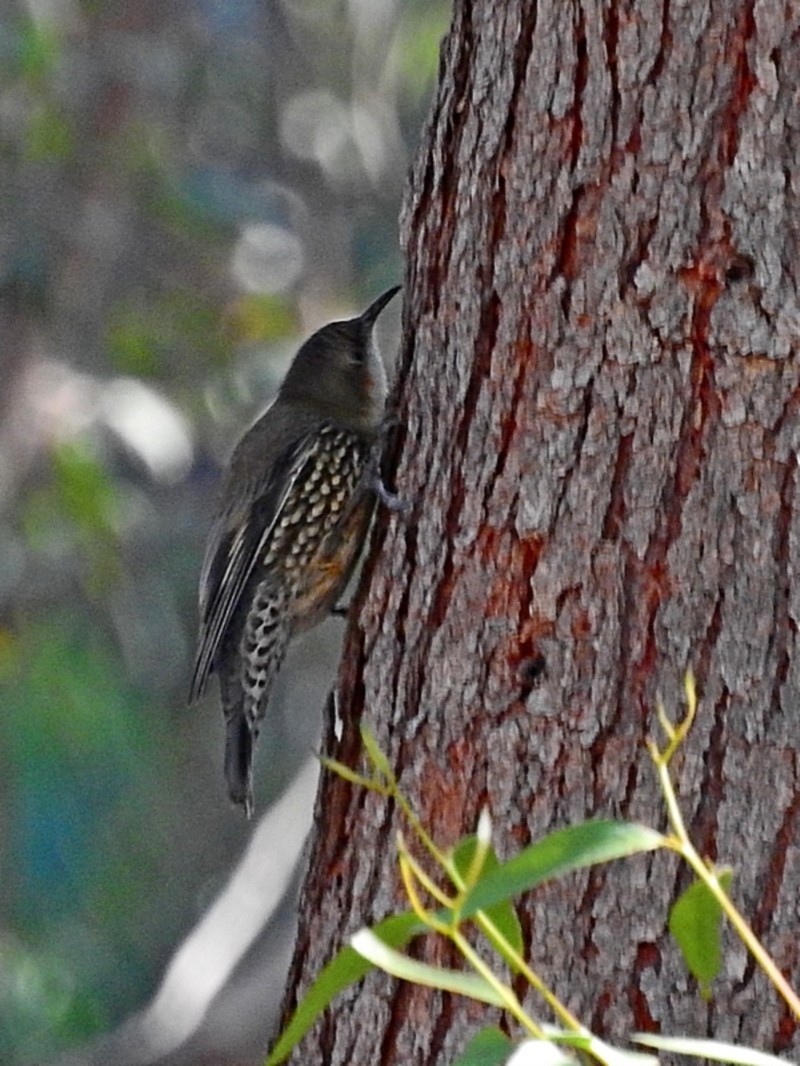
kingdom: Animalia
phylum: Chordata
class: Aves
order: Passeriformes
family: Climacteridae
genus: Cormobates
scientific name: Cormobates leucophaea
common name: White-throated treecreeper
